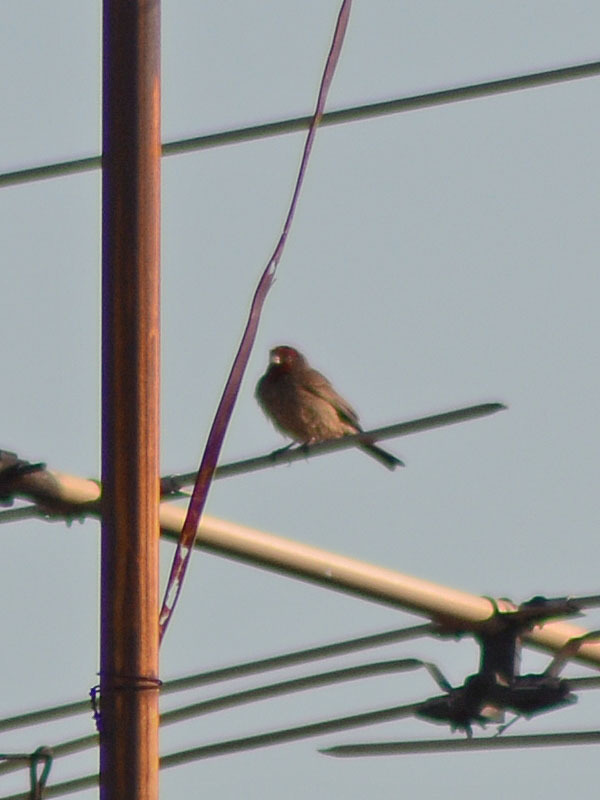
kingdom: Animalia
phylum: Chordata
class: Aves
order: Passeriformes
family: Fringillidae
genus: Haemorhous
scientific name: Haemorhous mexicanus
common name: House finch
